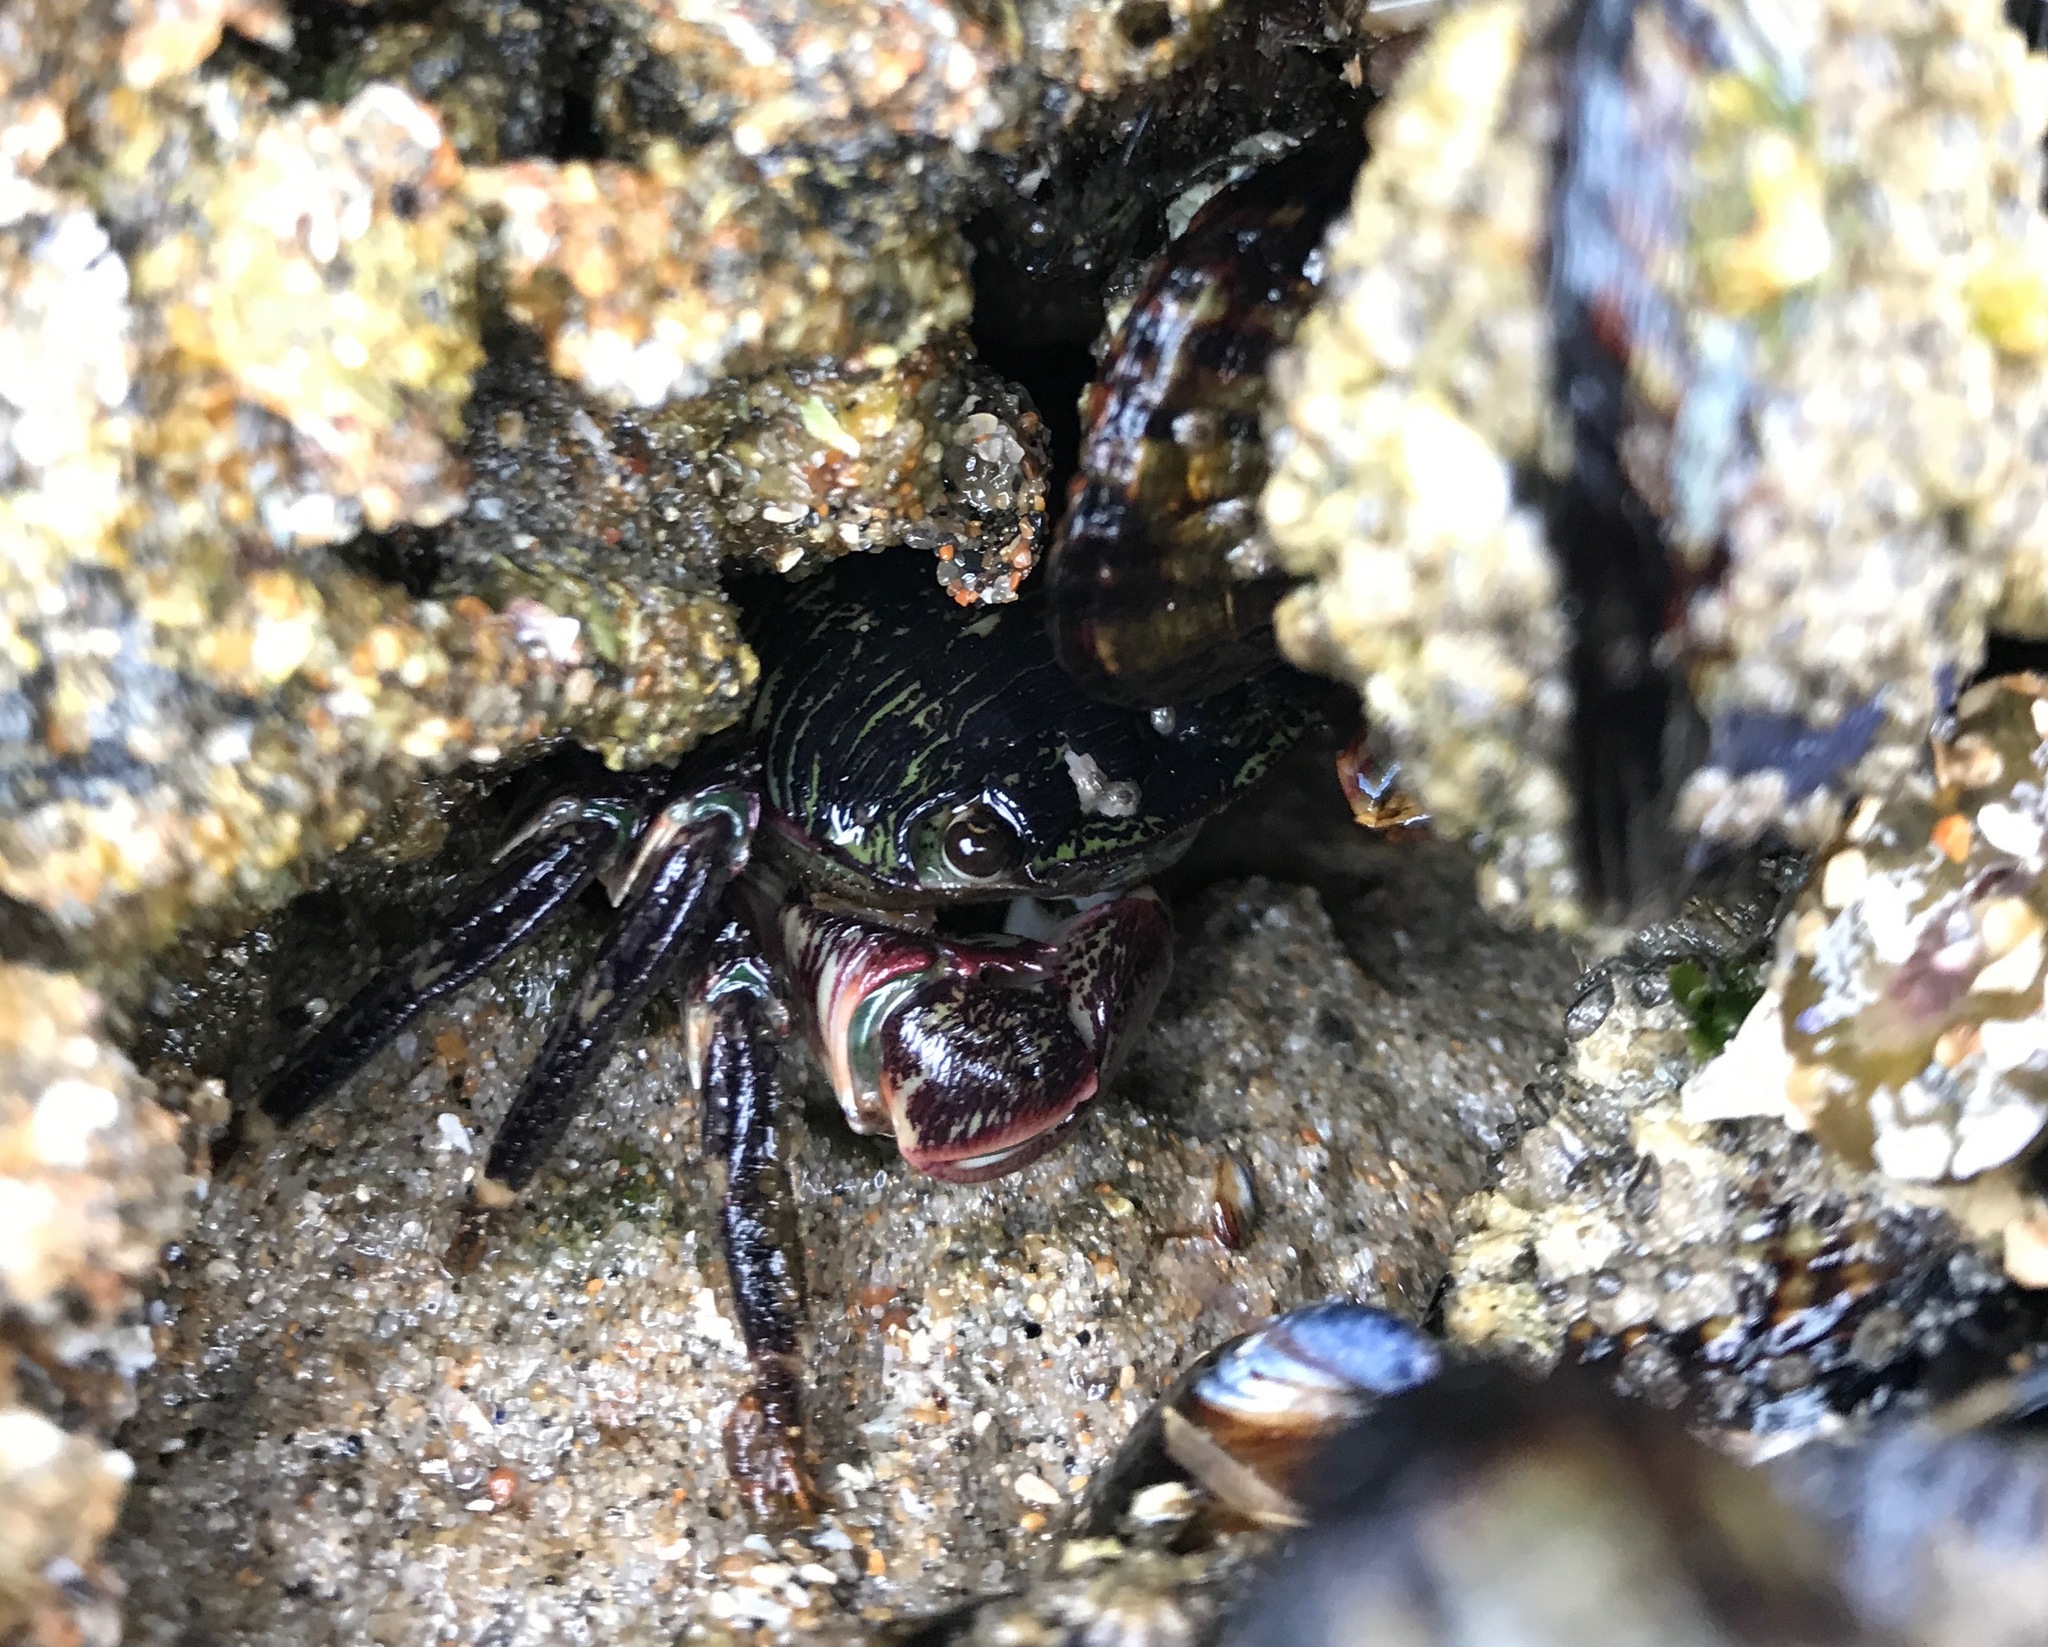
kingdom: Animalia
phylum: Arthropoda
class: Malacostraca
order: Decapoda
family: Grapsidae
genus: Pachygrapsus
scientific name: Pachygrapsus crassipes
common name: Striped shore crab
